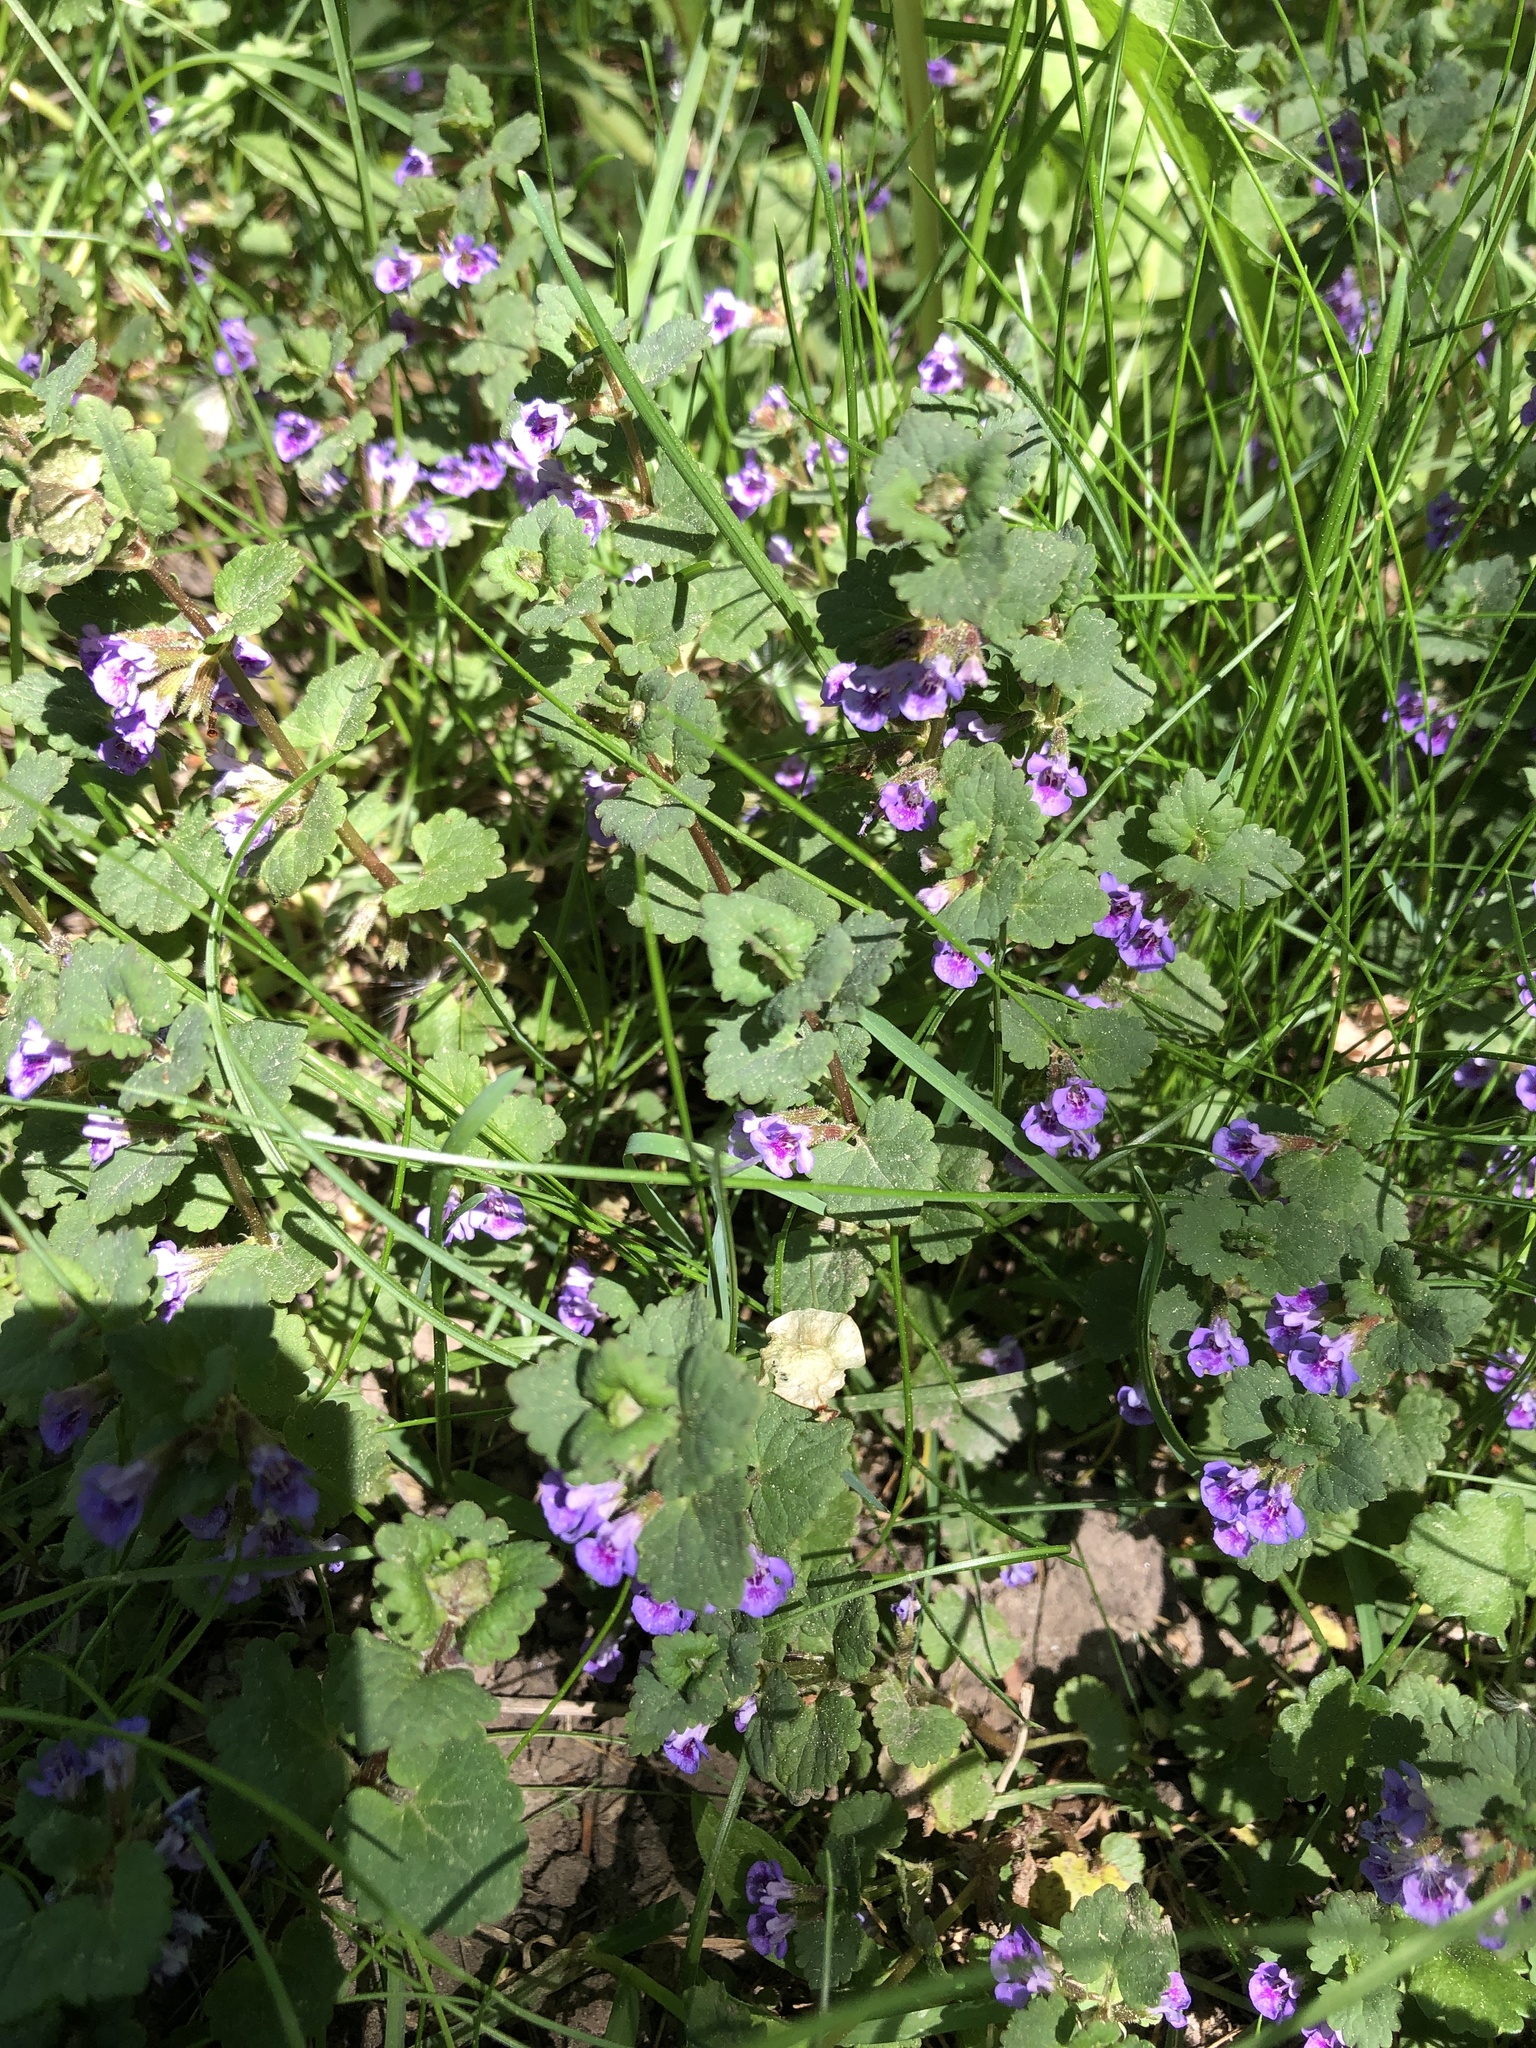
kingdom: Plantae
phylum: Tracheophyta
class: Magnoliopsida
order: Lamiales
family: Lamiaceae
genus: Glechoma
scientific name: Glechoma hederacea
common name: Ground ivy
